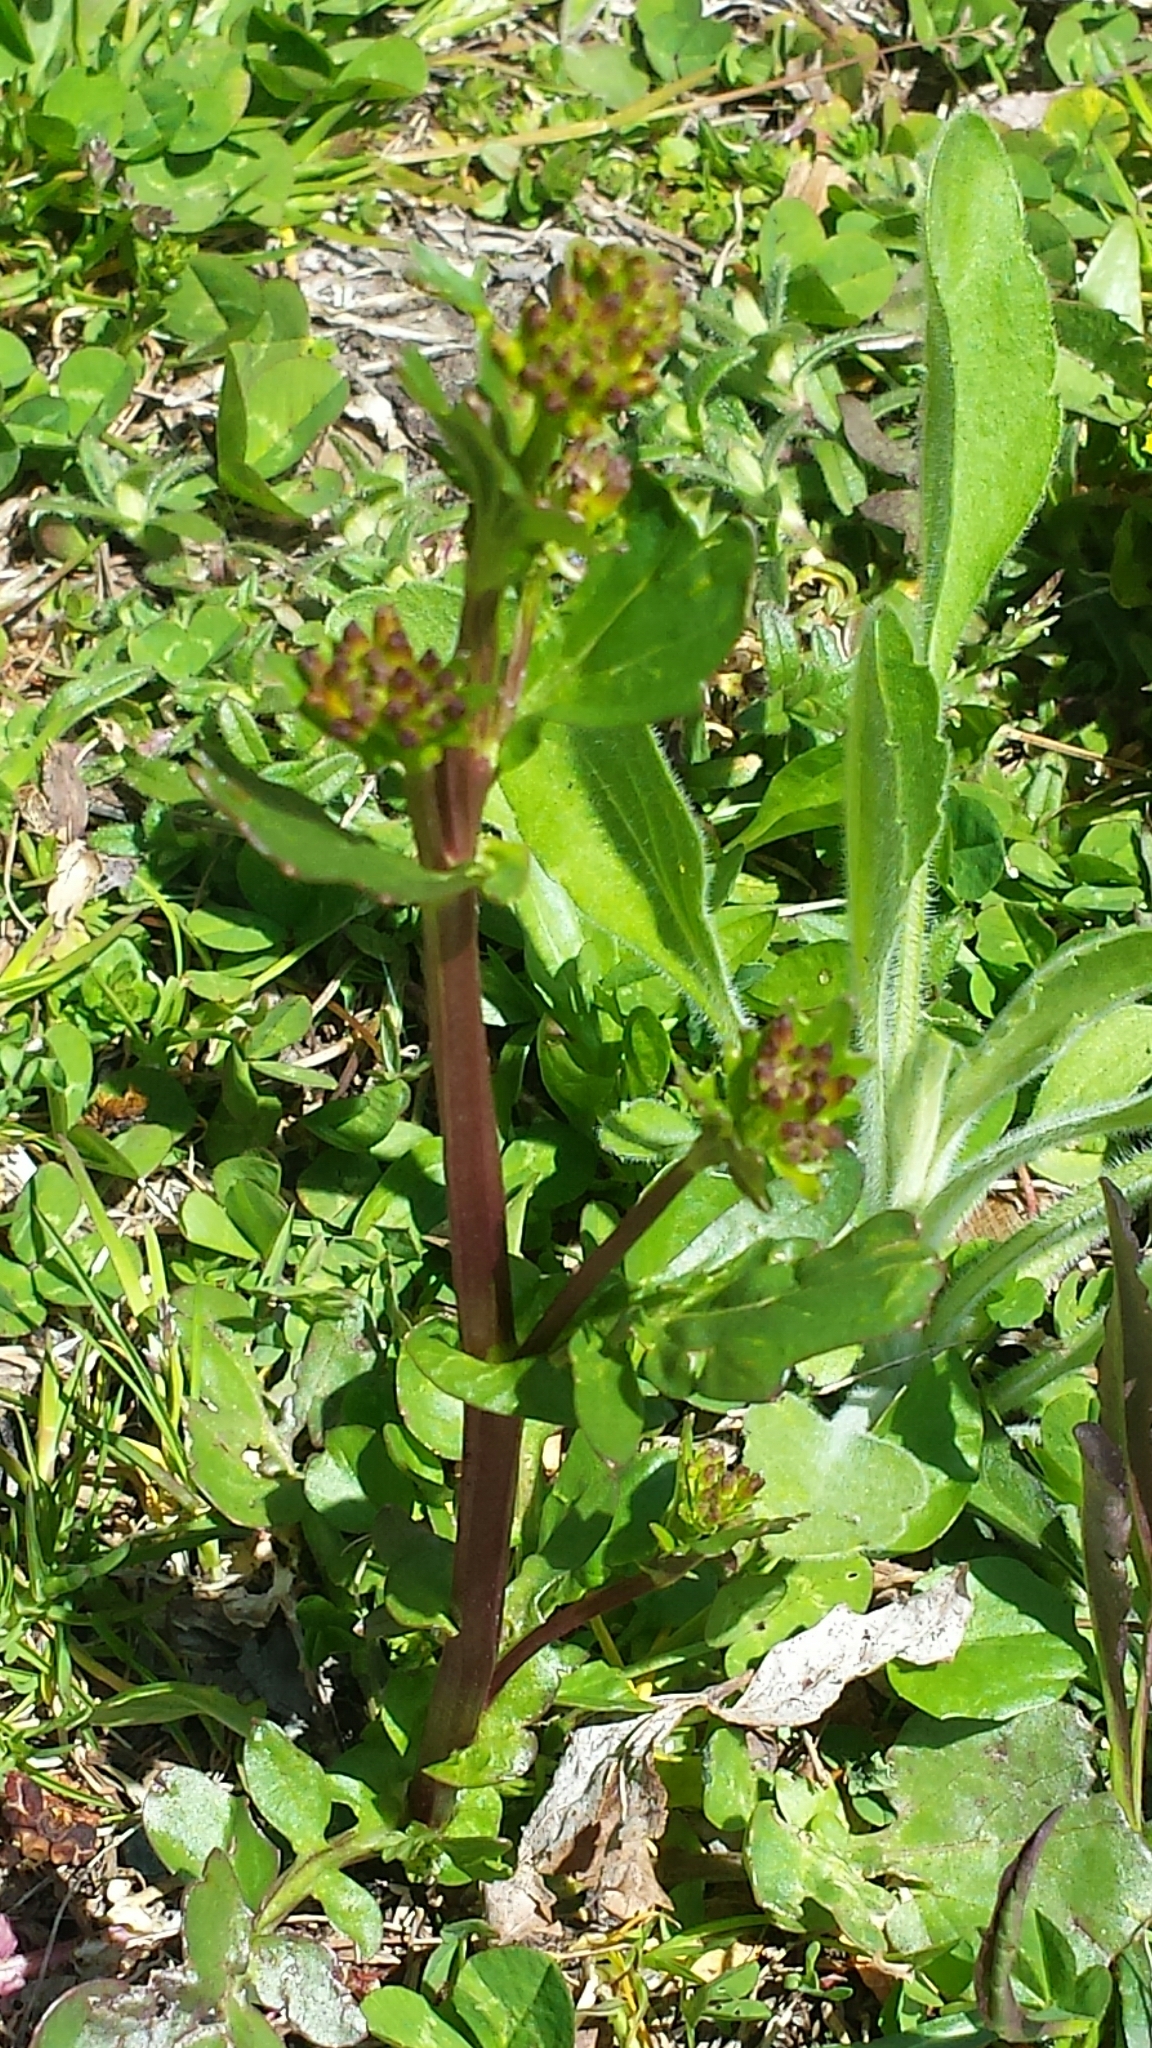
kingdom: Plantae
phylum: Tracheophyta
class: Magnoliopsida
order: Brassicales
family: Brassicaceae
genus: Barbarea
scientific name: Barbarea vulgaris
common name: Cressy-greens
